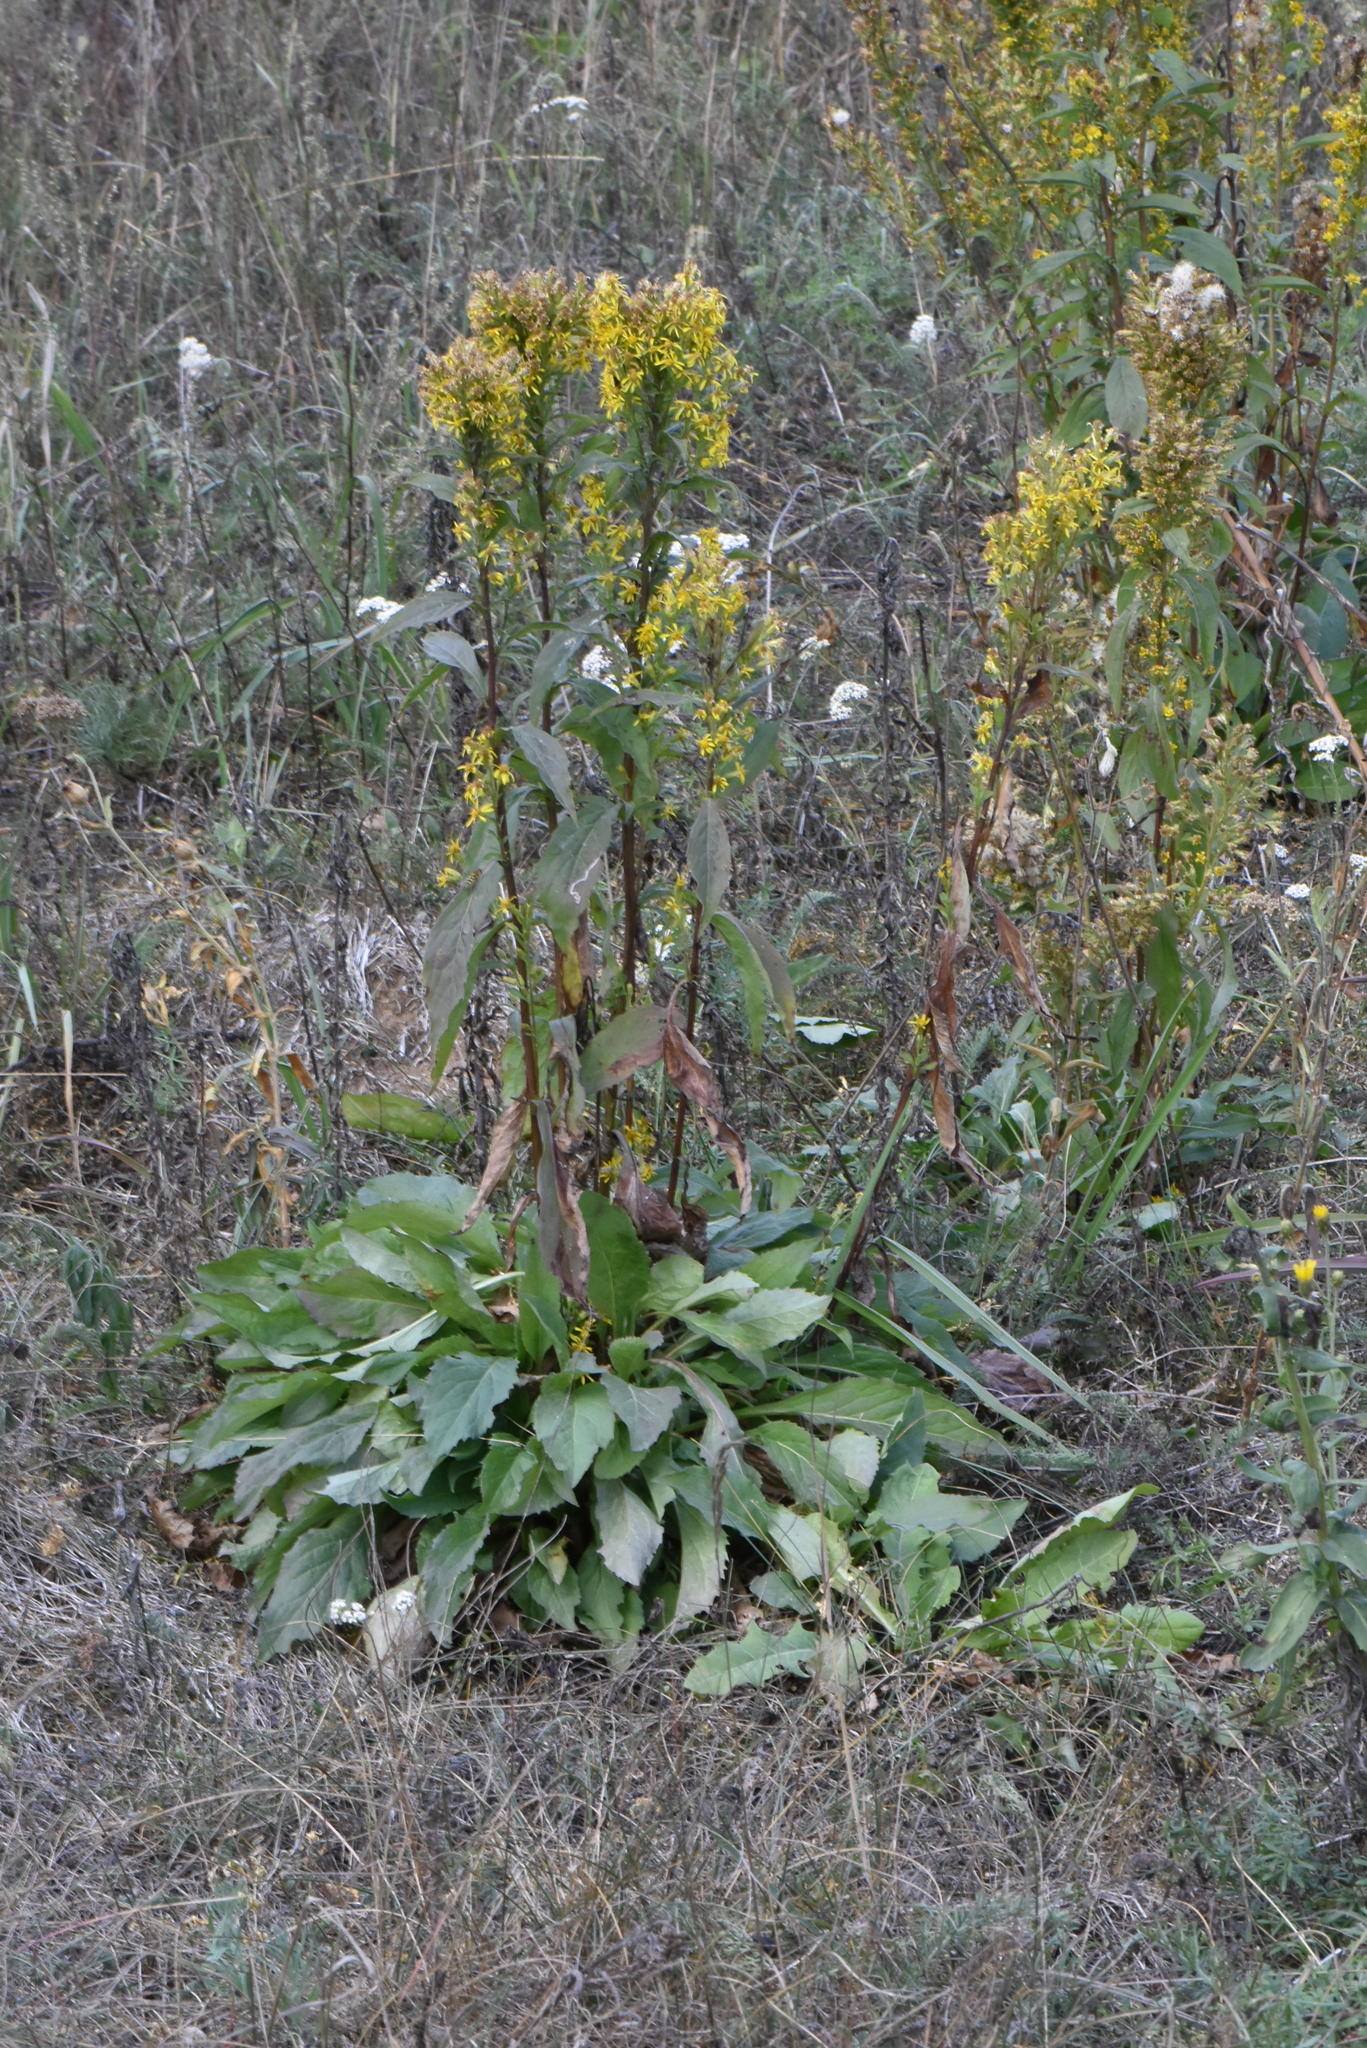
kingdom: Plantae
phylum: Tracheophyta
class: Magnoliopsida
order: Asterales
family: Asteraceae
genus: Solidago
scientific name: Solidago virgaurea
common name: Goldenrod
